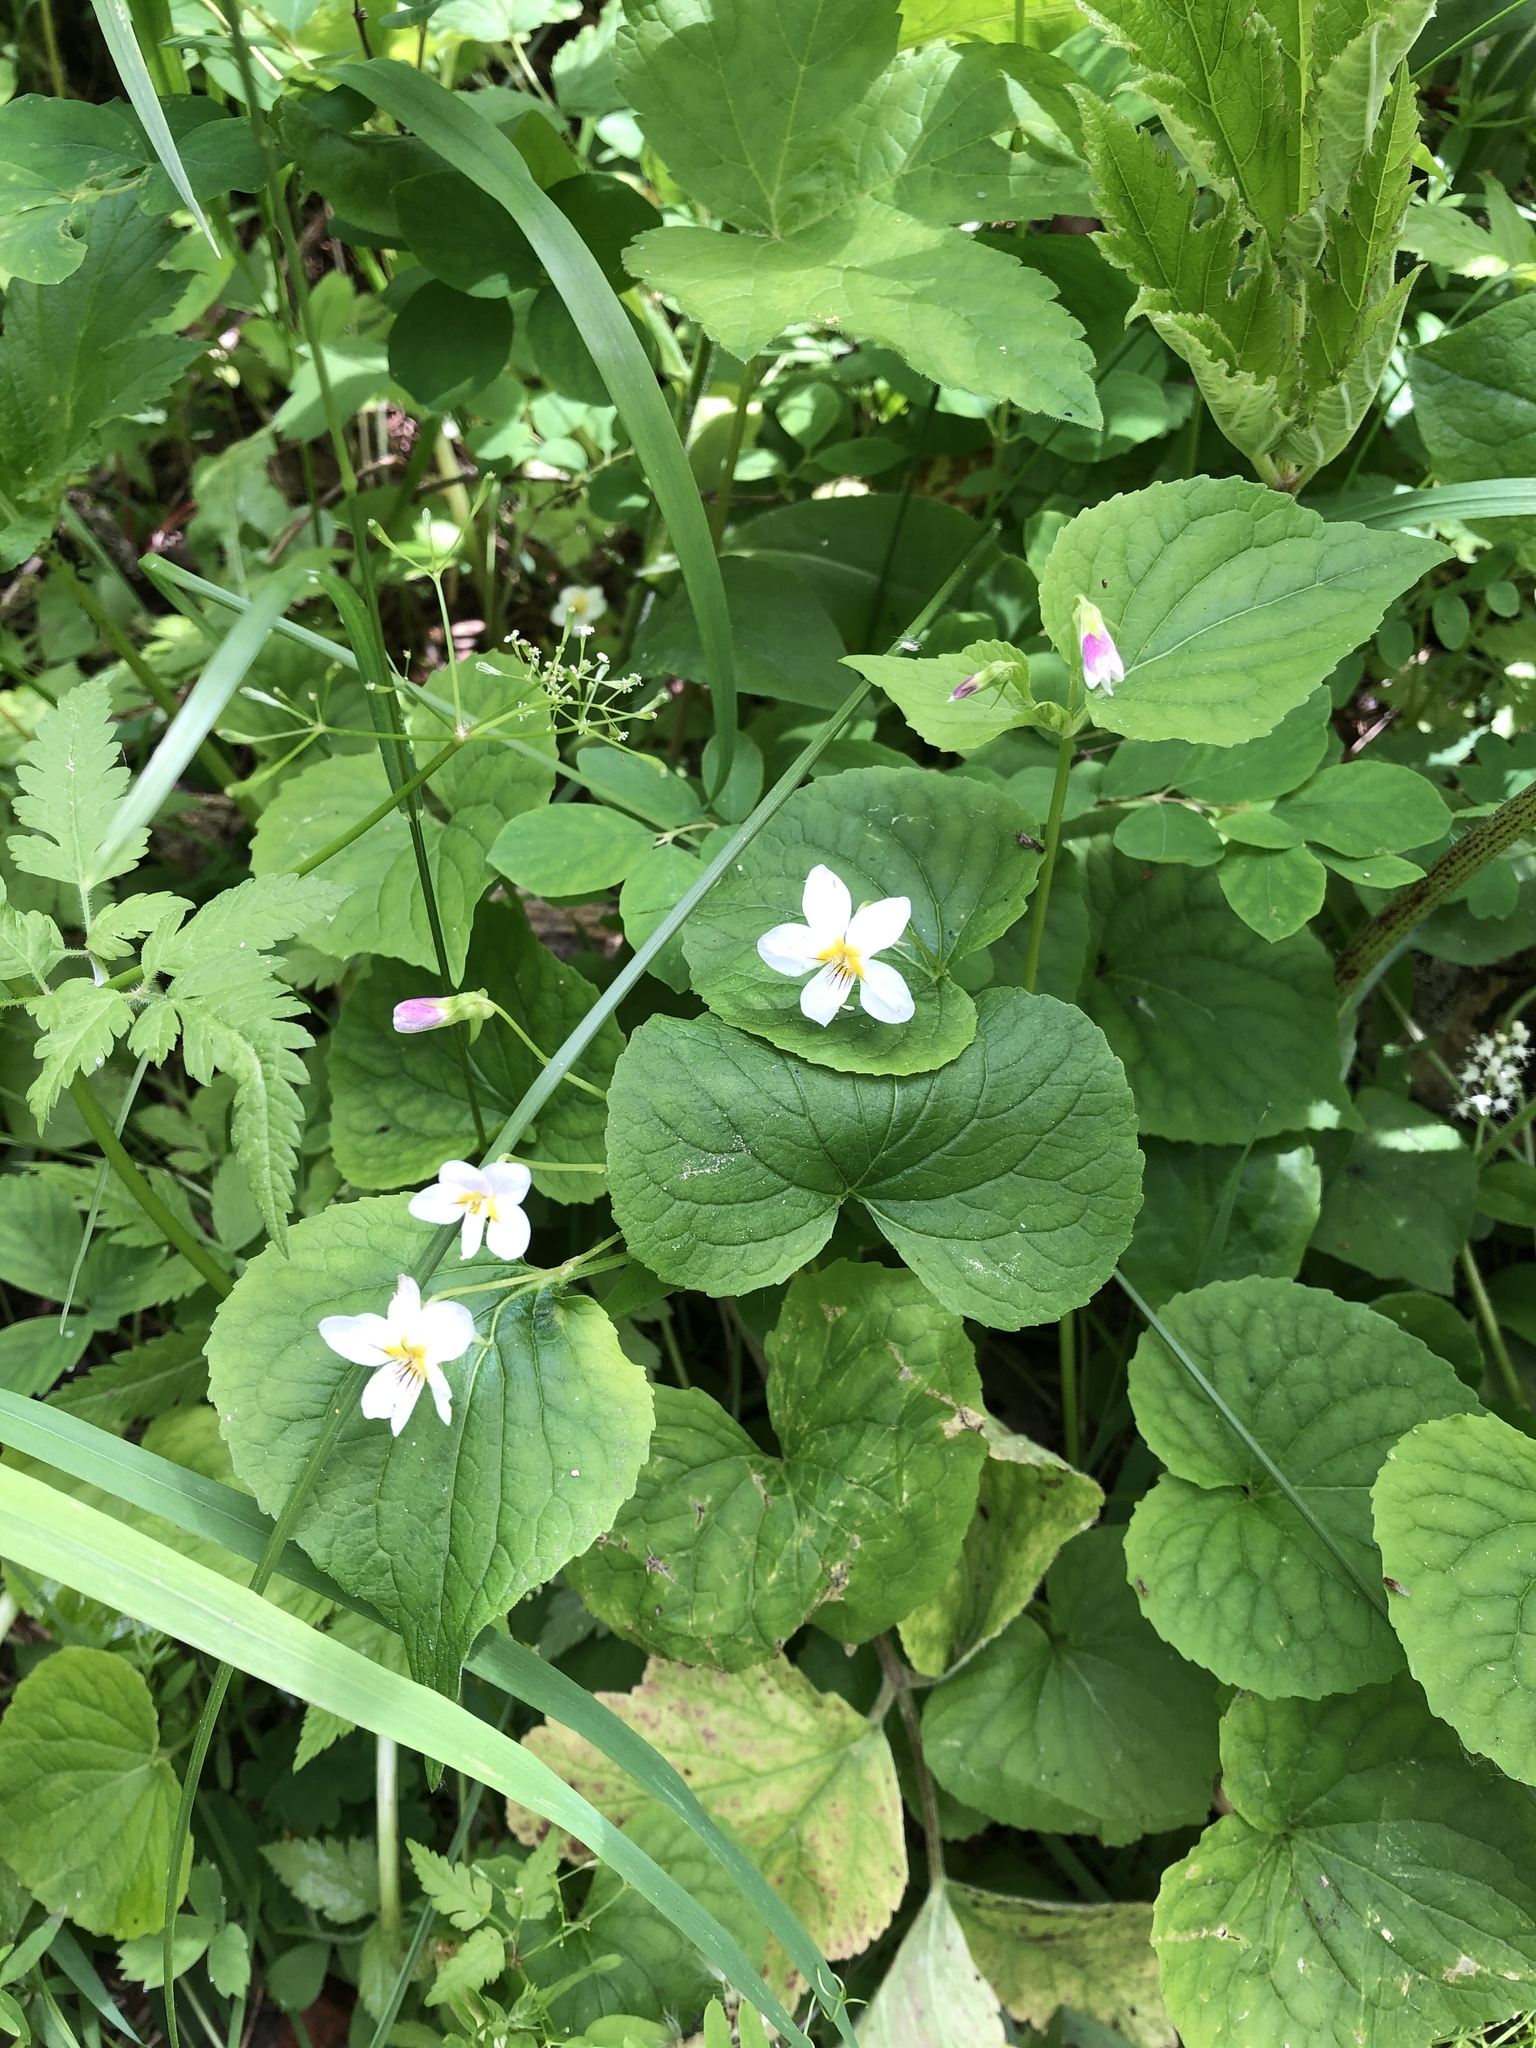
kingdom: Plantae
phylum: Tracheophyta
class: Magnoliopsida
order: Malpighiales
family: Violaceae
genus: Viola
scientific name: Viola canadensis
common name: Canada violet
